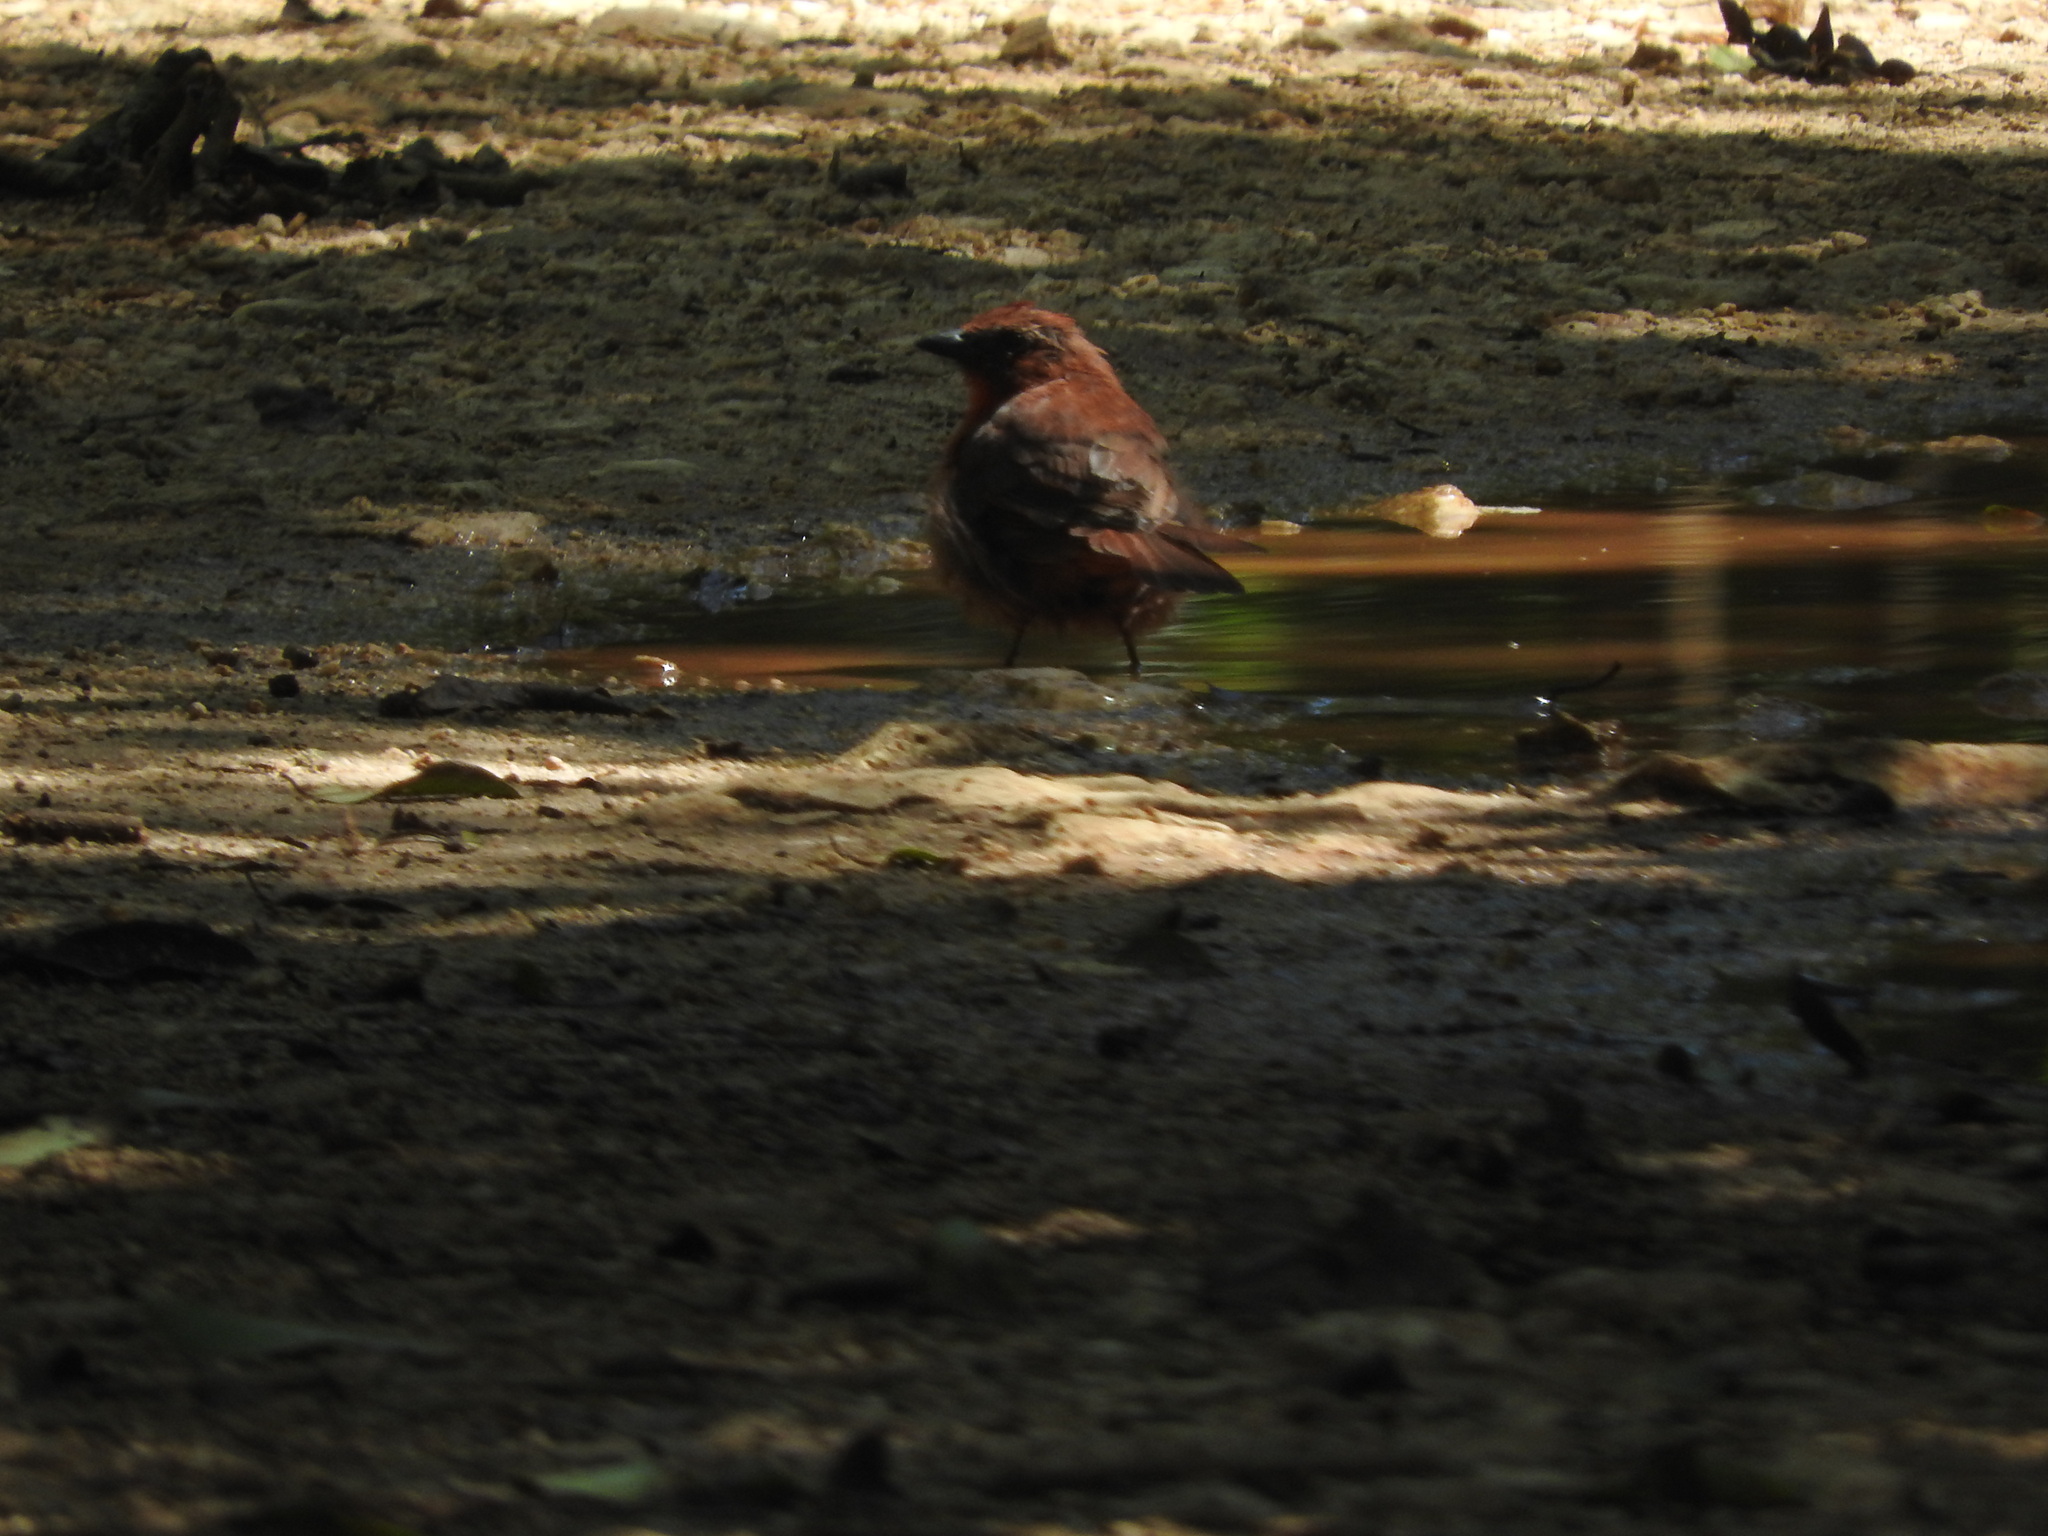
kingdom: Animalia
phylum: Chordata
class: Aves
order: Passeriformes
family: Cardinalidae
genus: Habia
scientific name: Habia fuscicauda
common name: Red-throated ant-tanager
